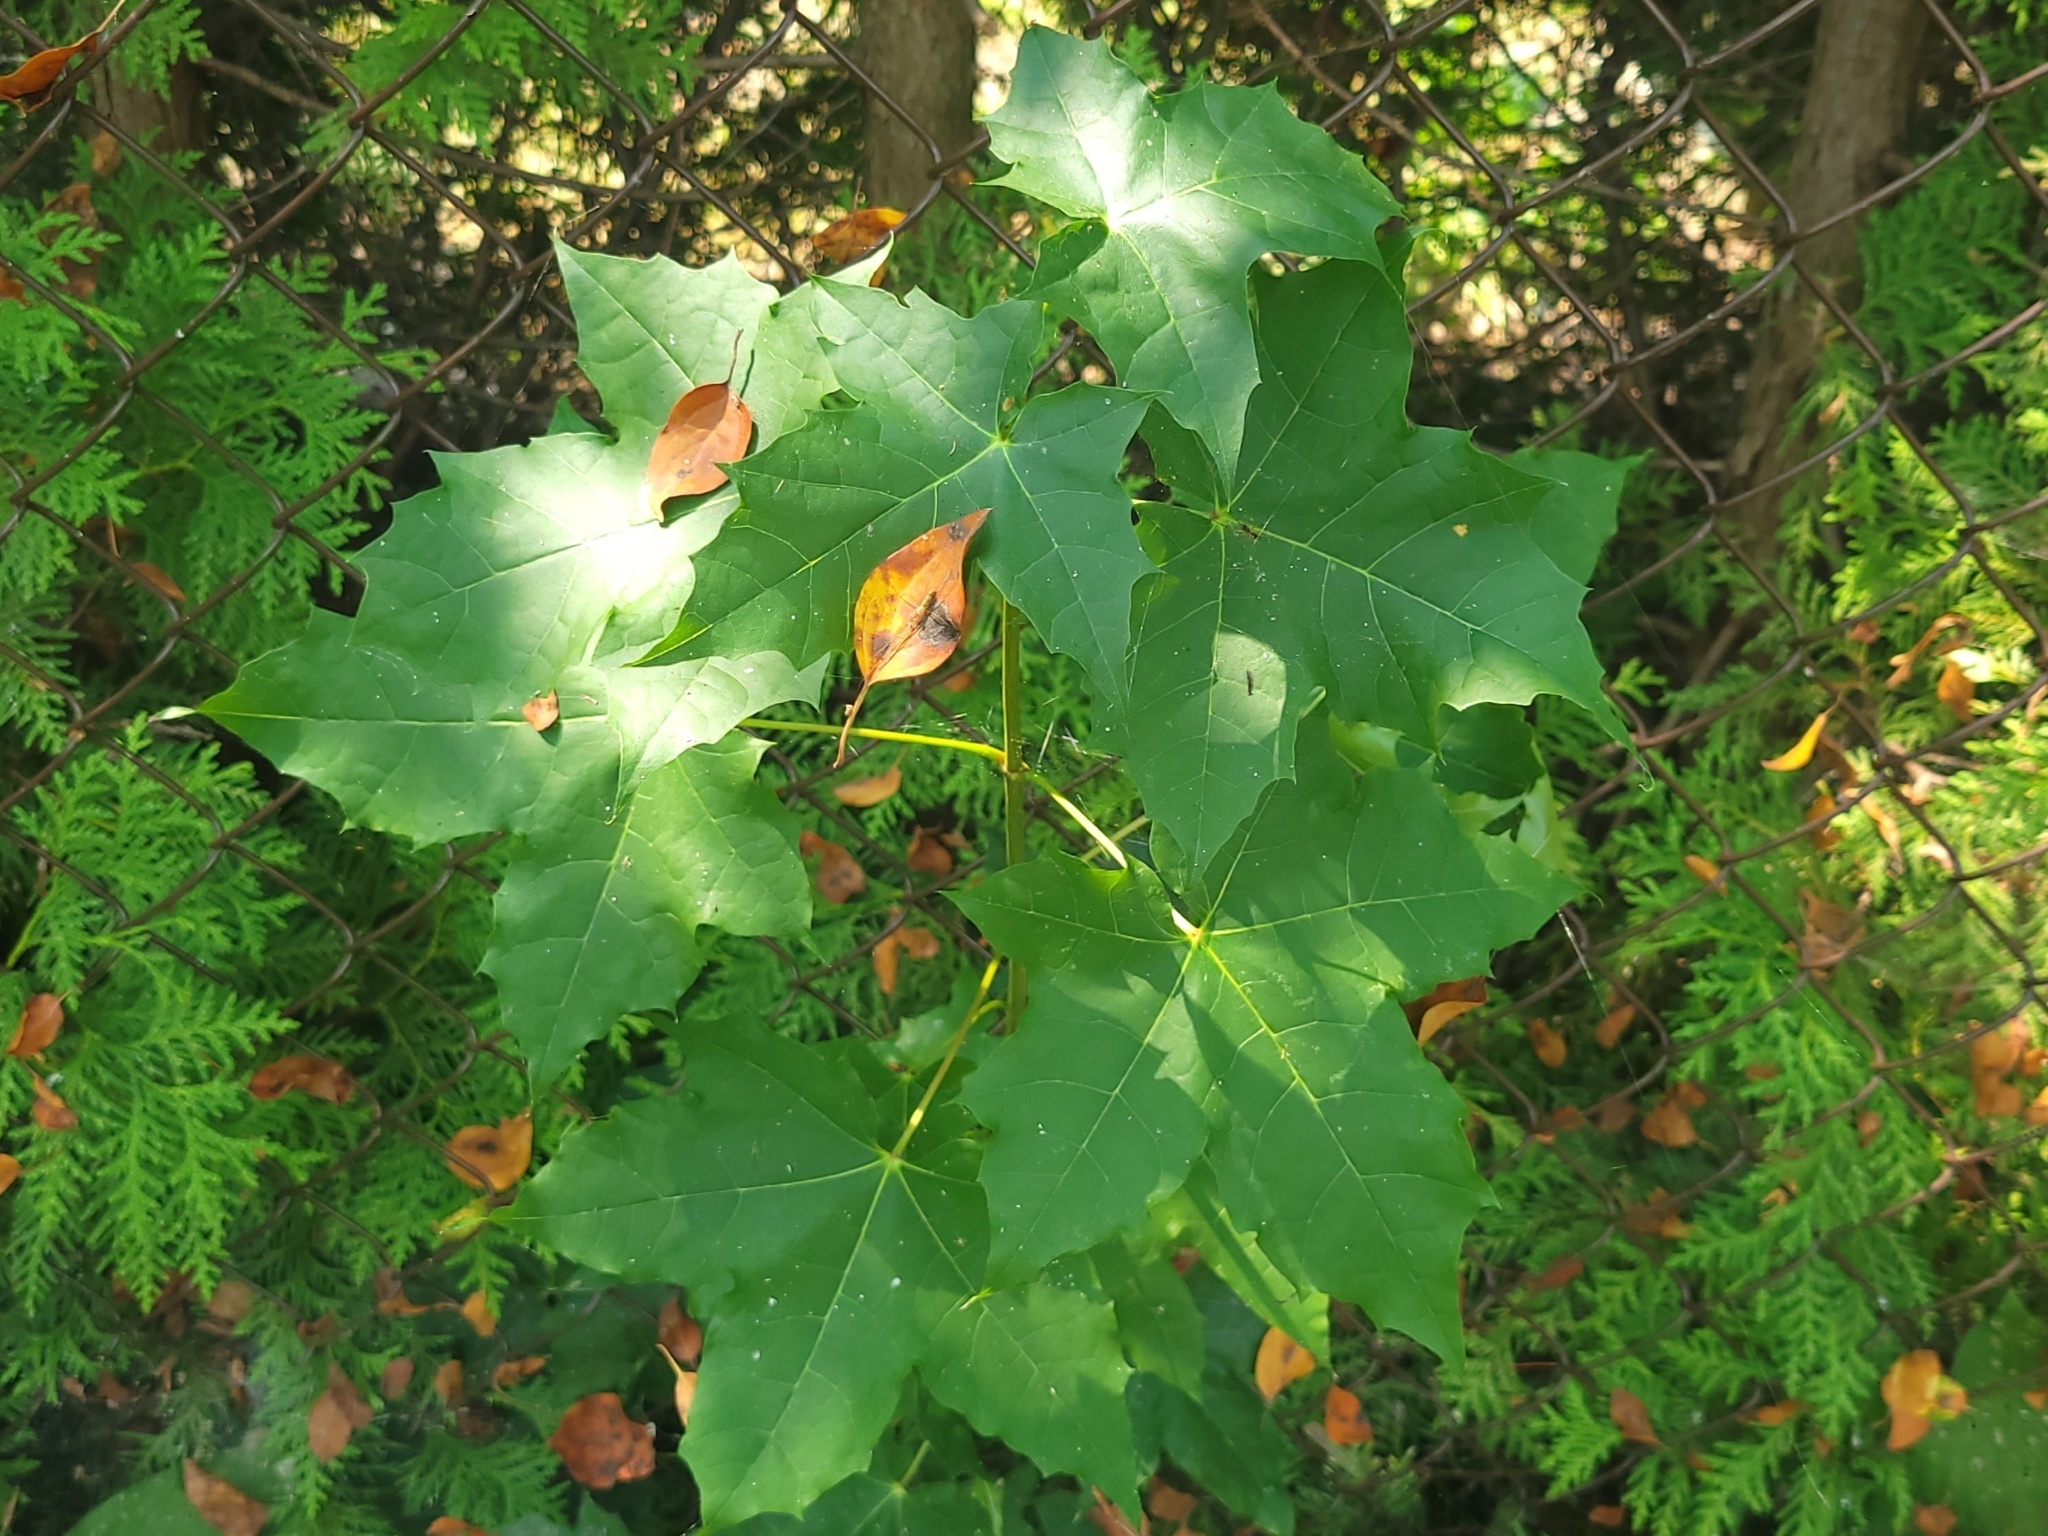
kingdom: Plantae
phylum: Tracheophyta
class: Magnoliopsida
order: Sapindales
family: Sapindaceae
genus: Acer
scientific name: Acer platanoides
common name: Norway maple
